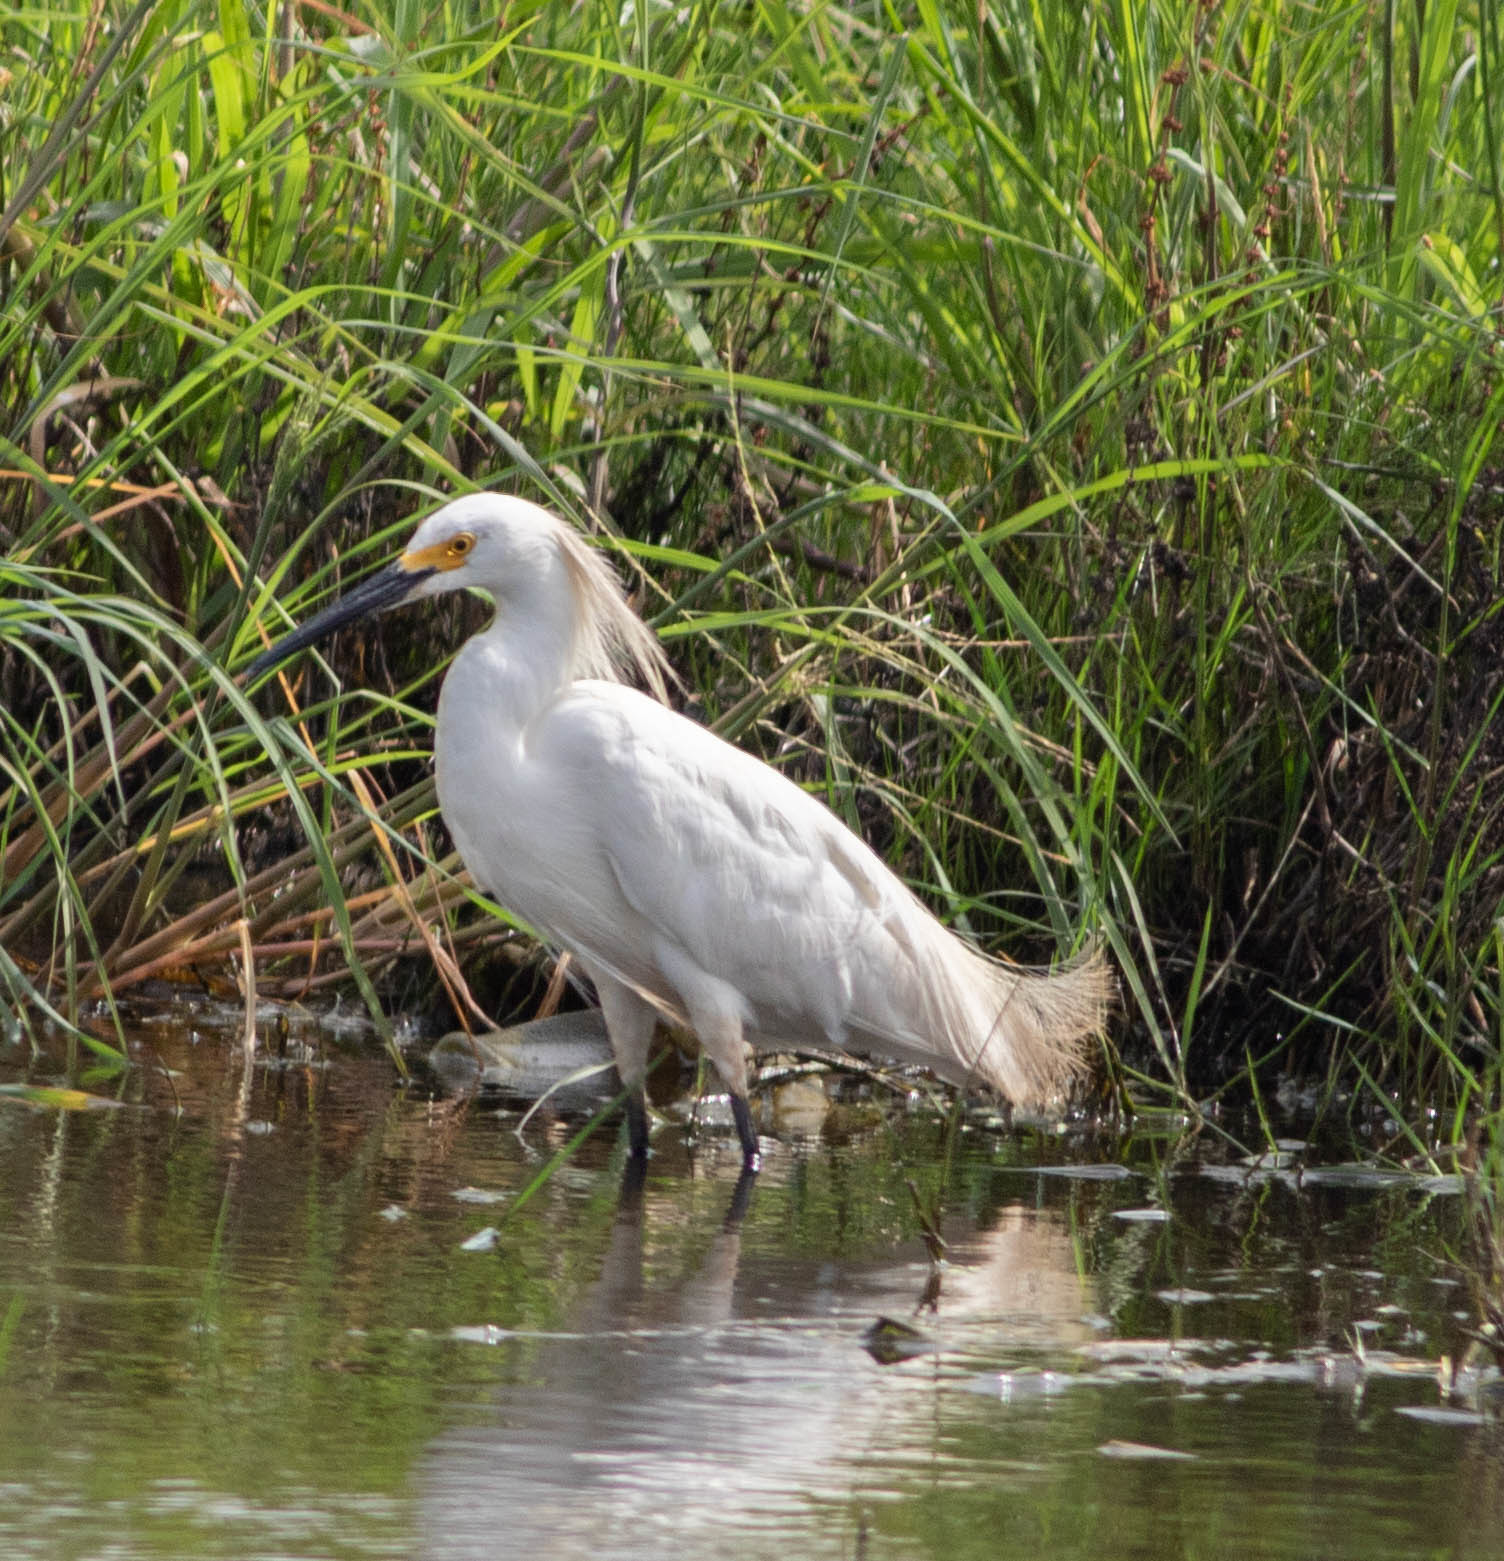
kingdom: Animalia
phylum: Chordata
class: Aves
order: Pelecaniformes
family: Ardeidae
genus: Egretta
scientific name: Egretta thula
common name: Snowy egret
